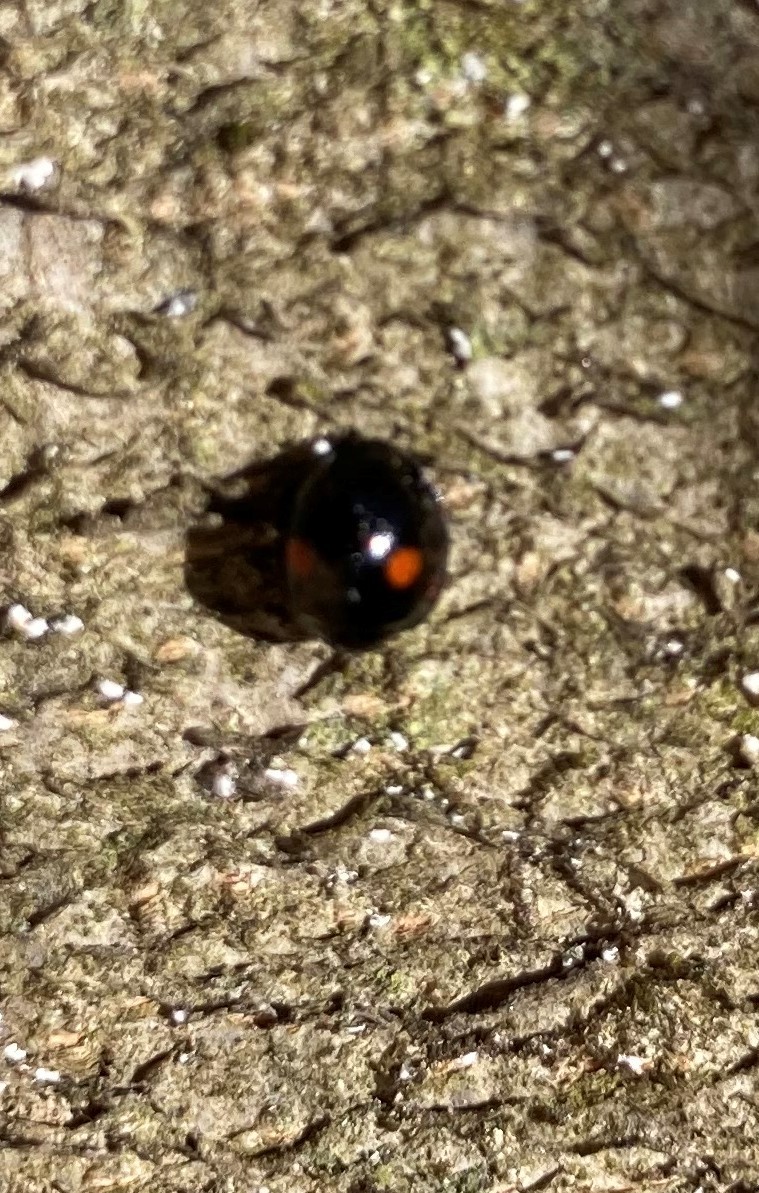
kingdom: Animalia
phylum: Arthropoda
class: Insecta
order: Coleoptera
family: Coccinellidae
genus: Chilocorus
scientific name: Chilocorus stigma
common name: Twicestabbed lady beetle
